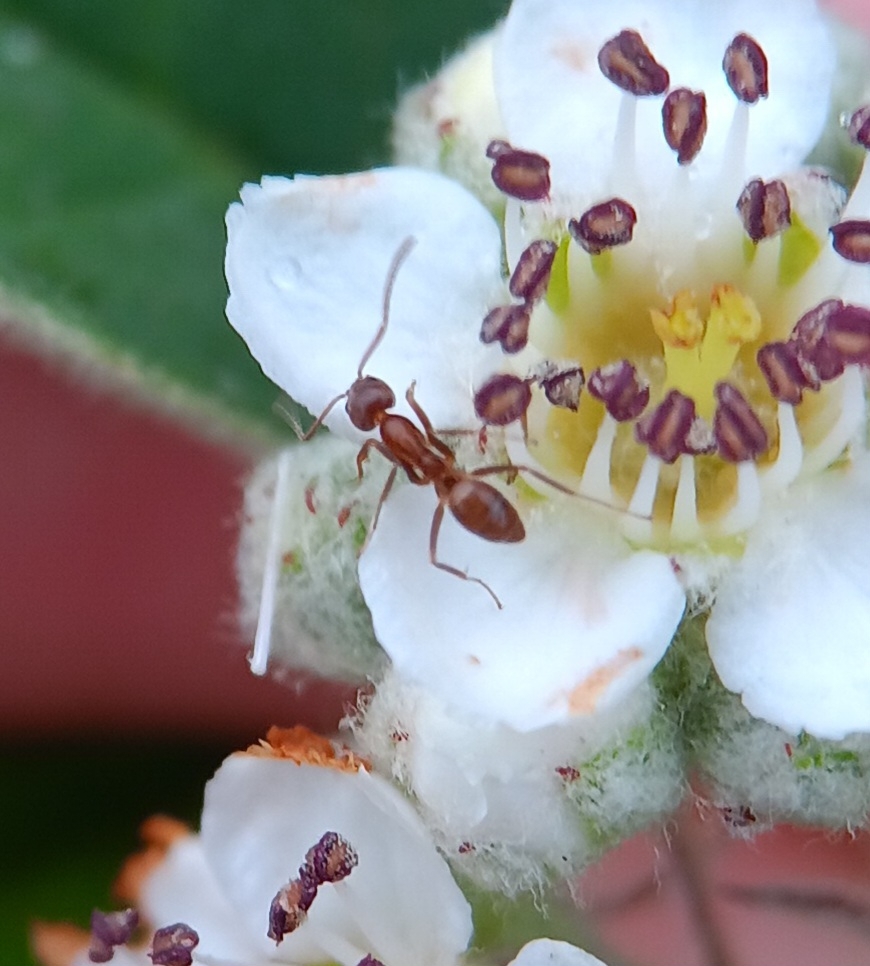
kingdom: Animalia
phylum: Arthropoda
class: Insecta
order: Hymenoptera
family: Formicidae
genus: Linepithema
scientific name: Linepithema humile
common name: Argentine ant
